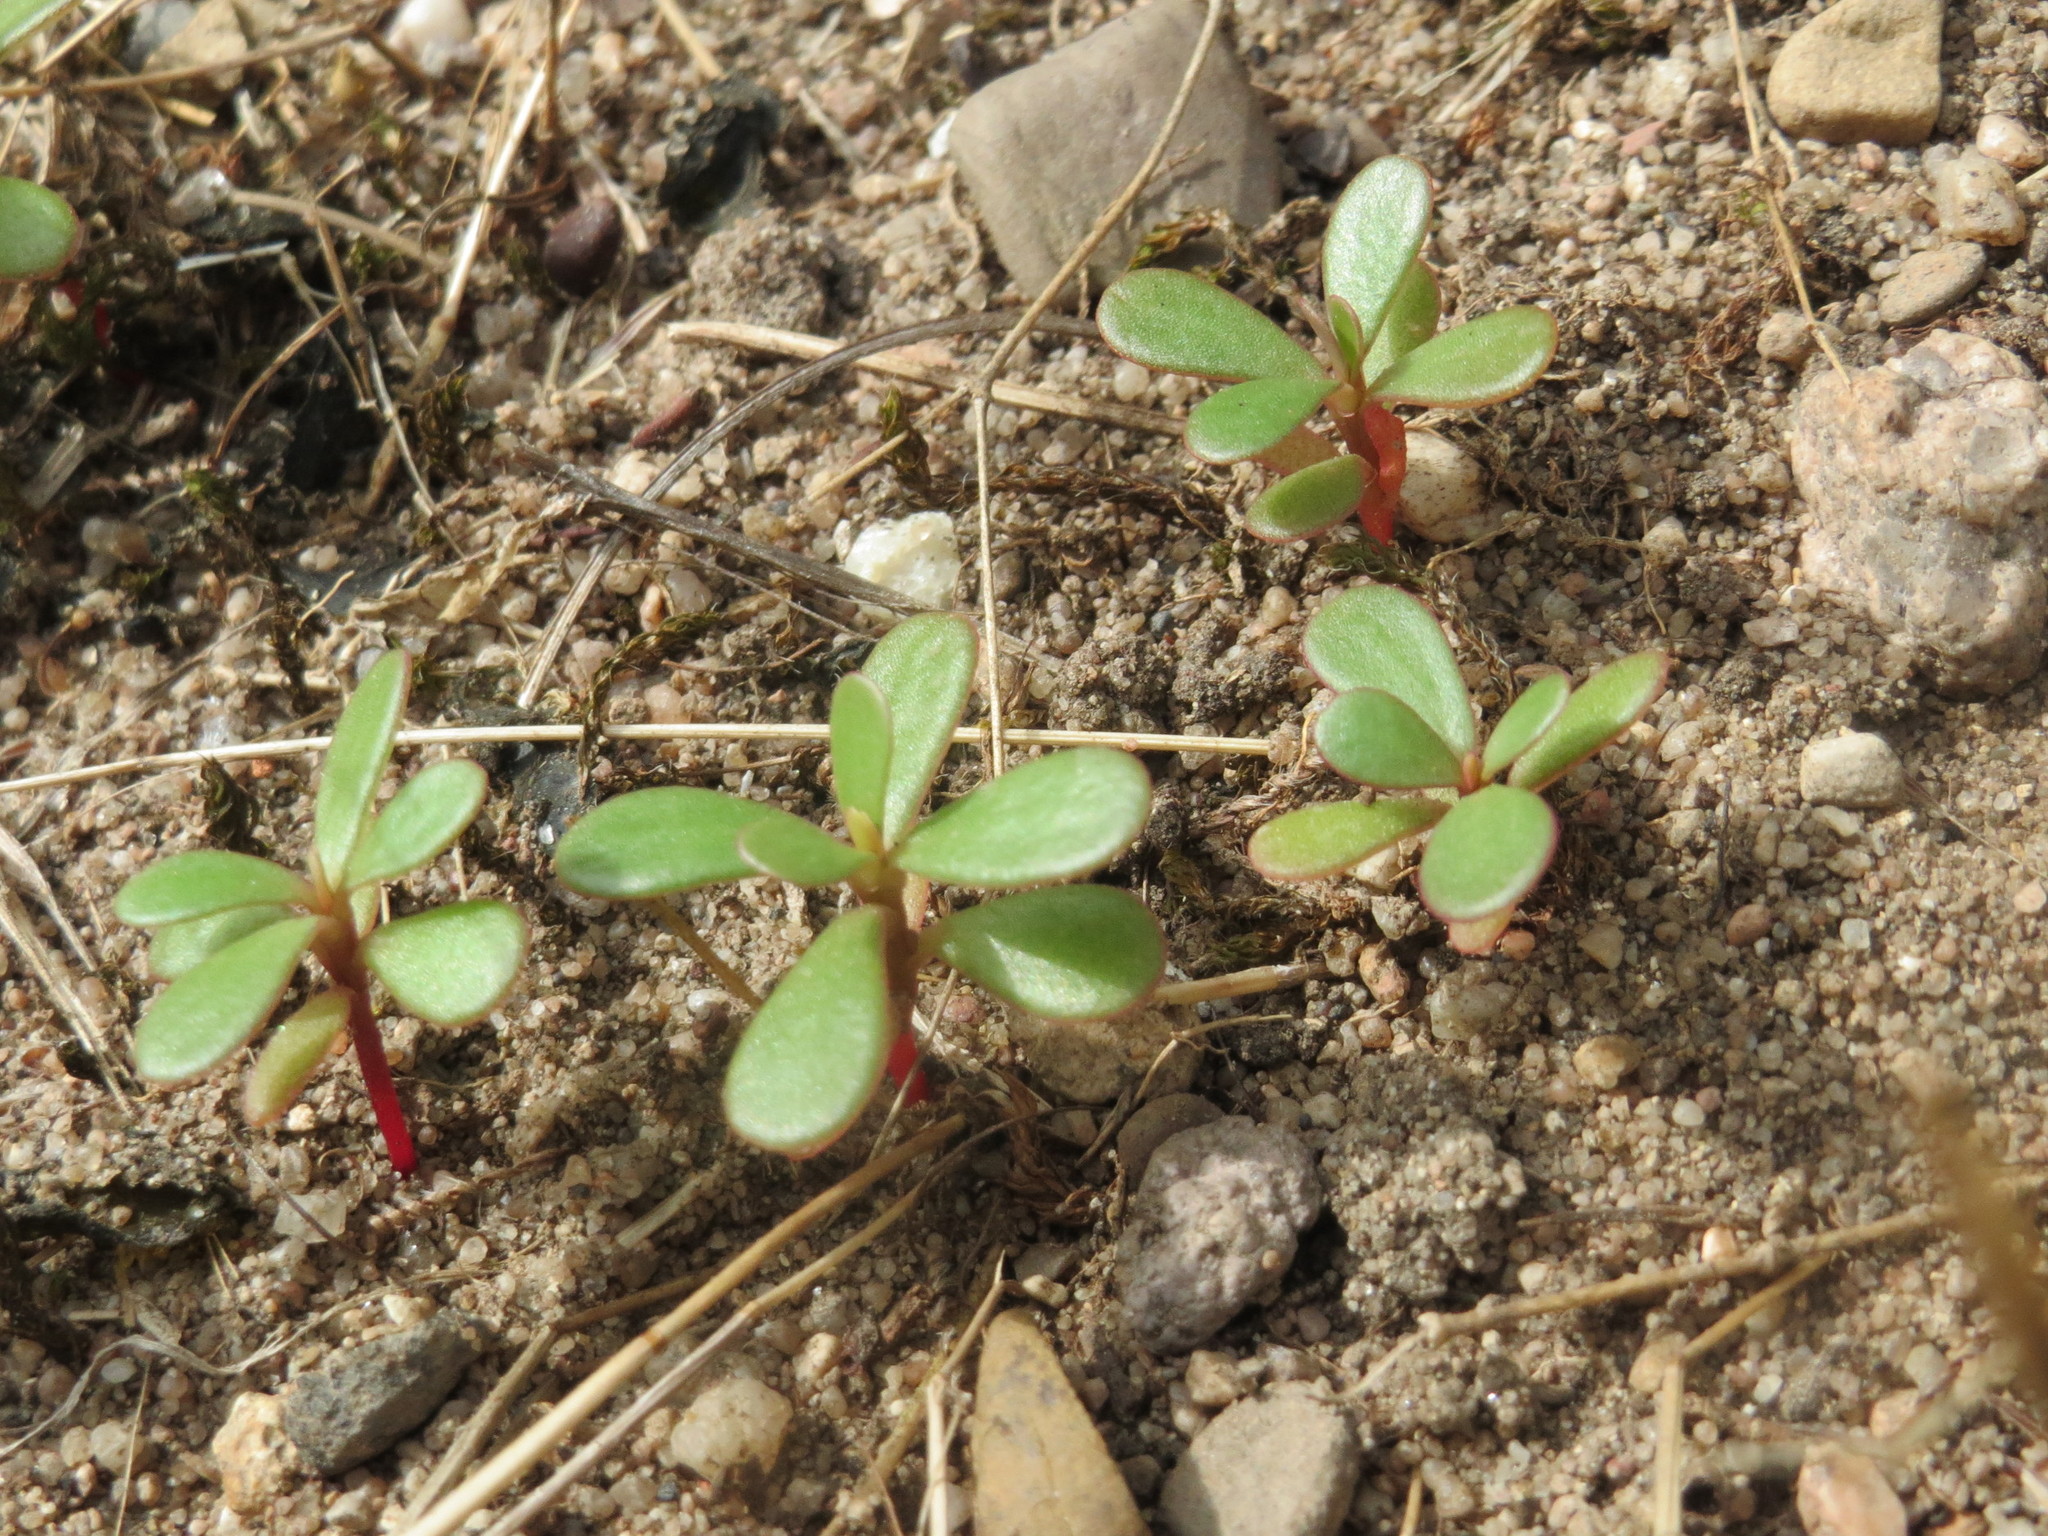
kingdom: Plantae
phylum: Tracheophyta
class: Magnoliopsida
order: Caryophyllales
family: Portulacaceae
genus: Portulaca
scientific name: Portulaca oleracea
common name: Common purslane
